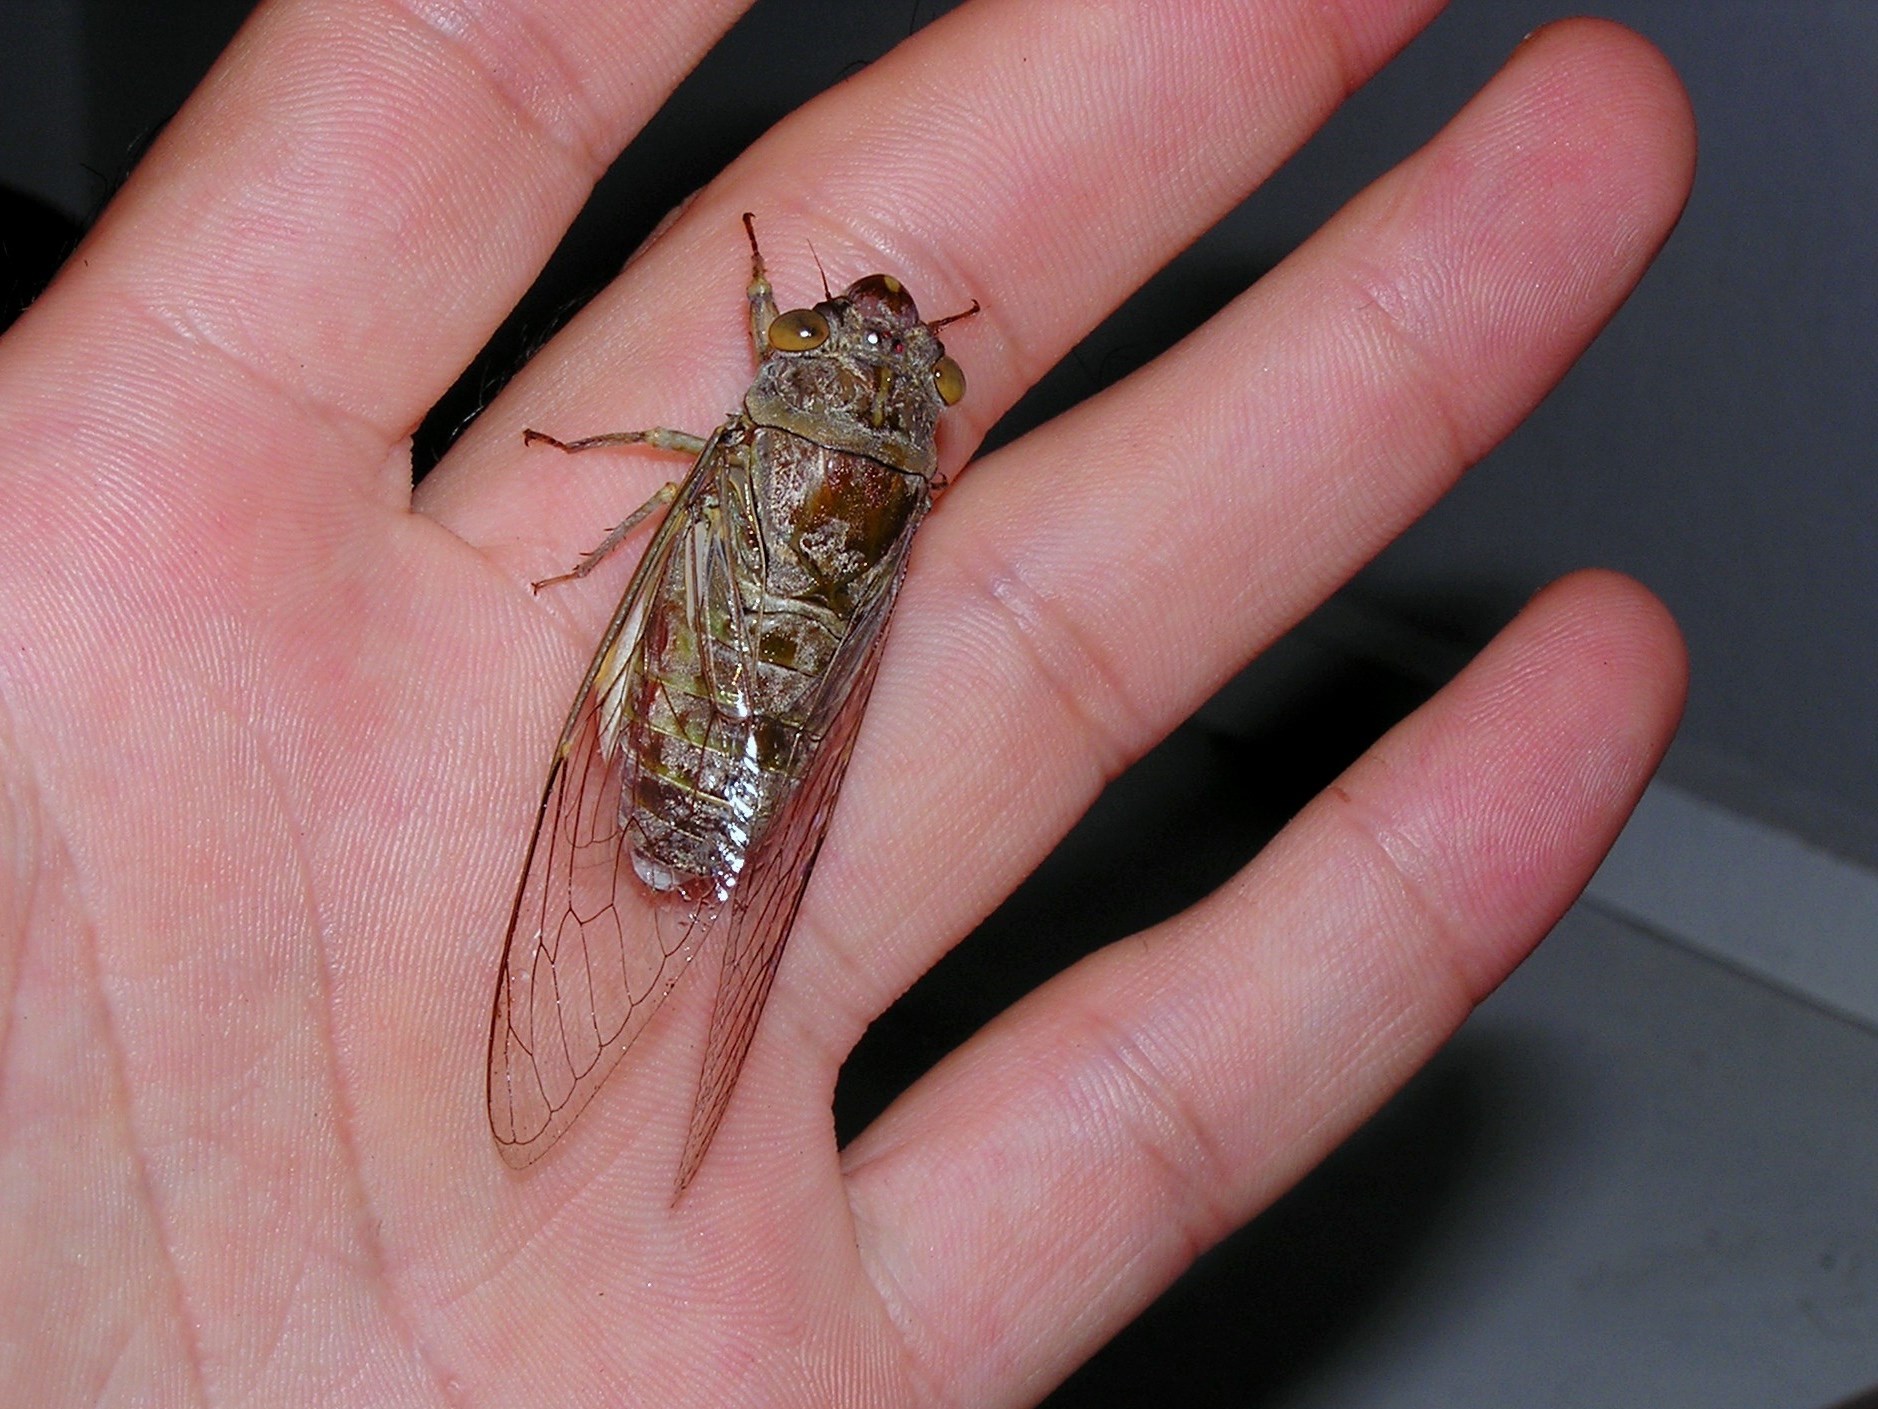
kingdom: Animalia
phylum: Arthropoda
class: Insecta
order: Hemiptera
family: Cicadidae
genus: Dundubia
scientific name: Dundubia nagarasingna
